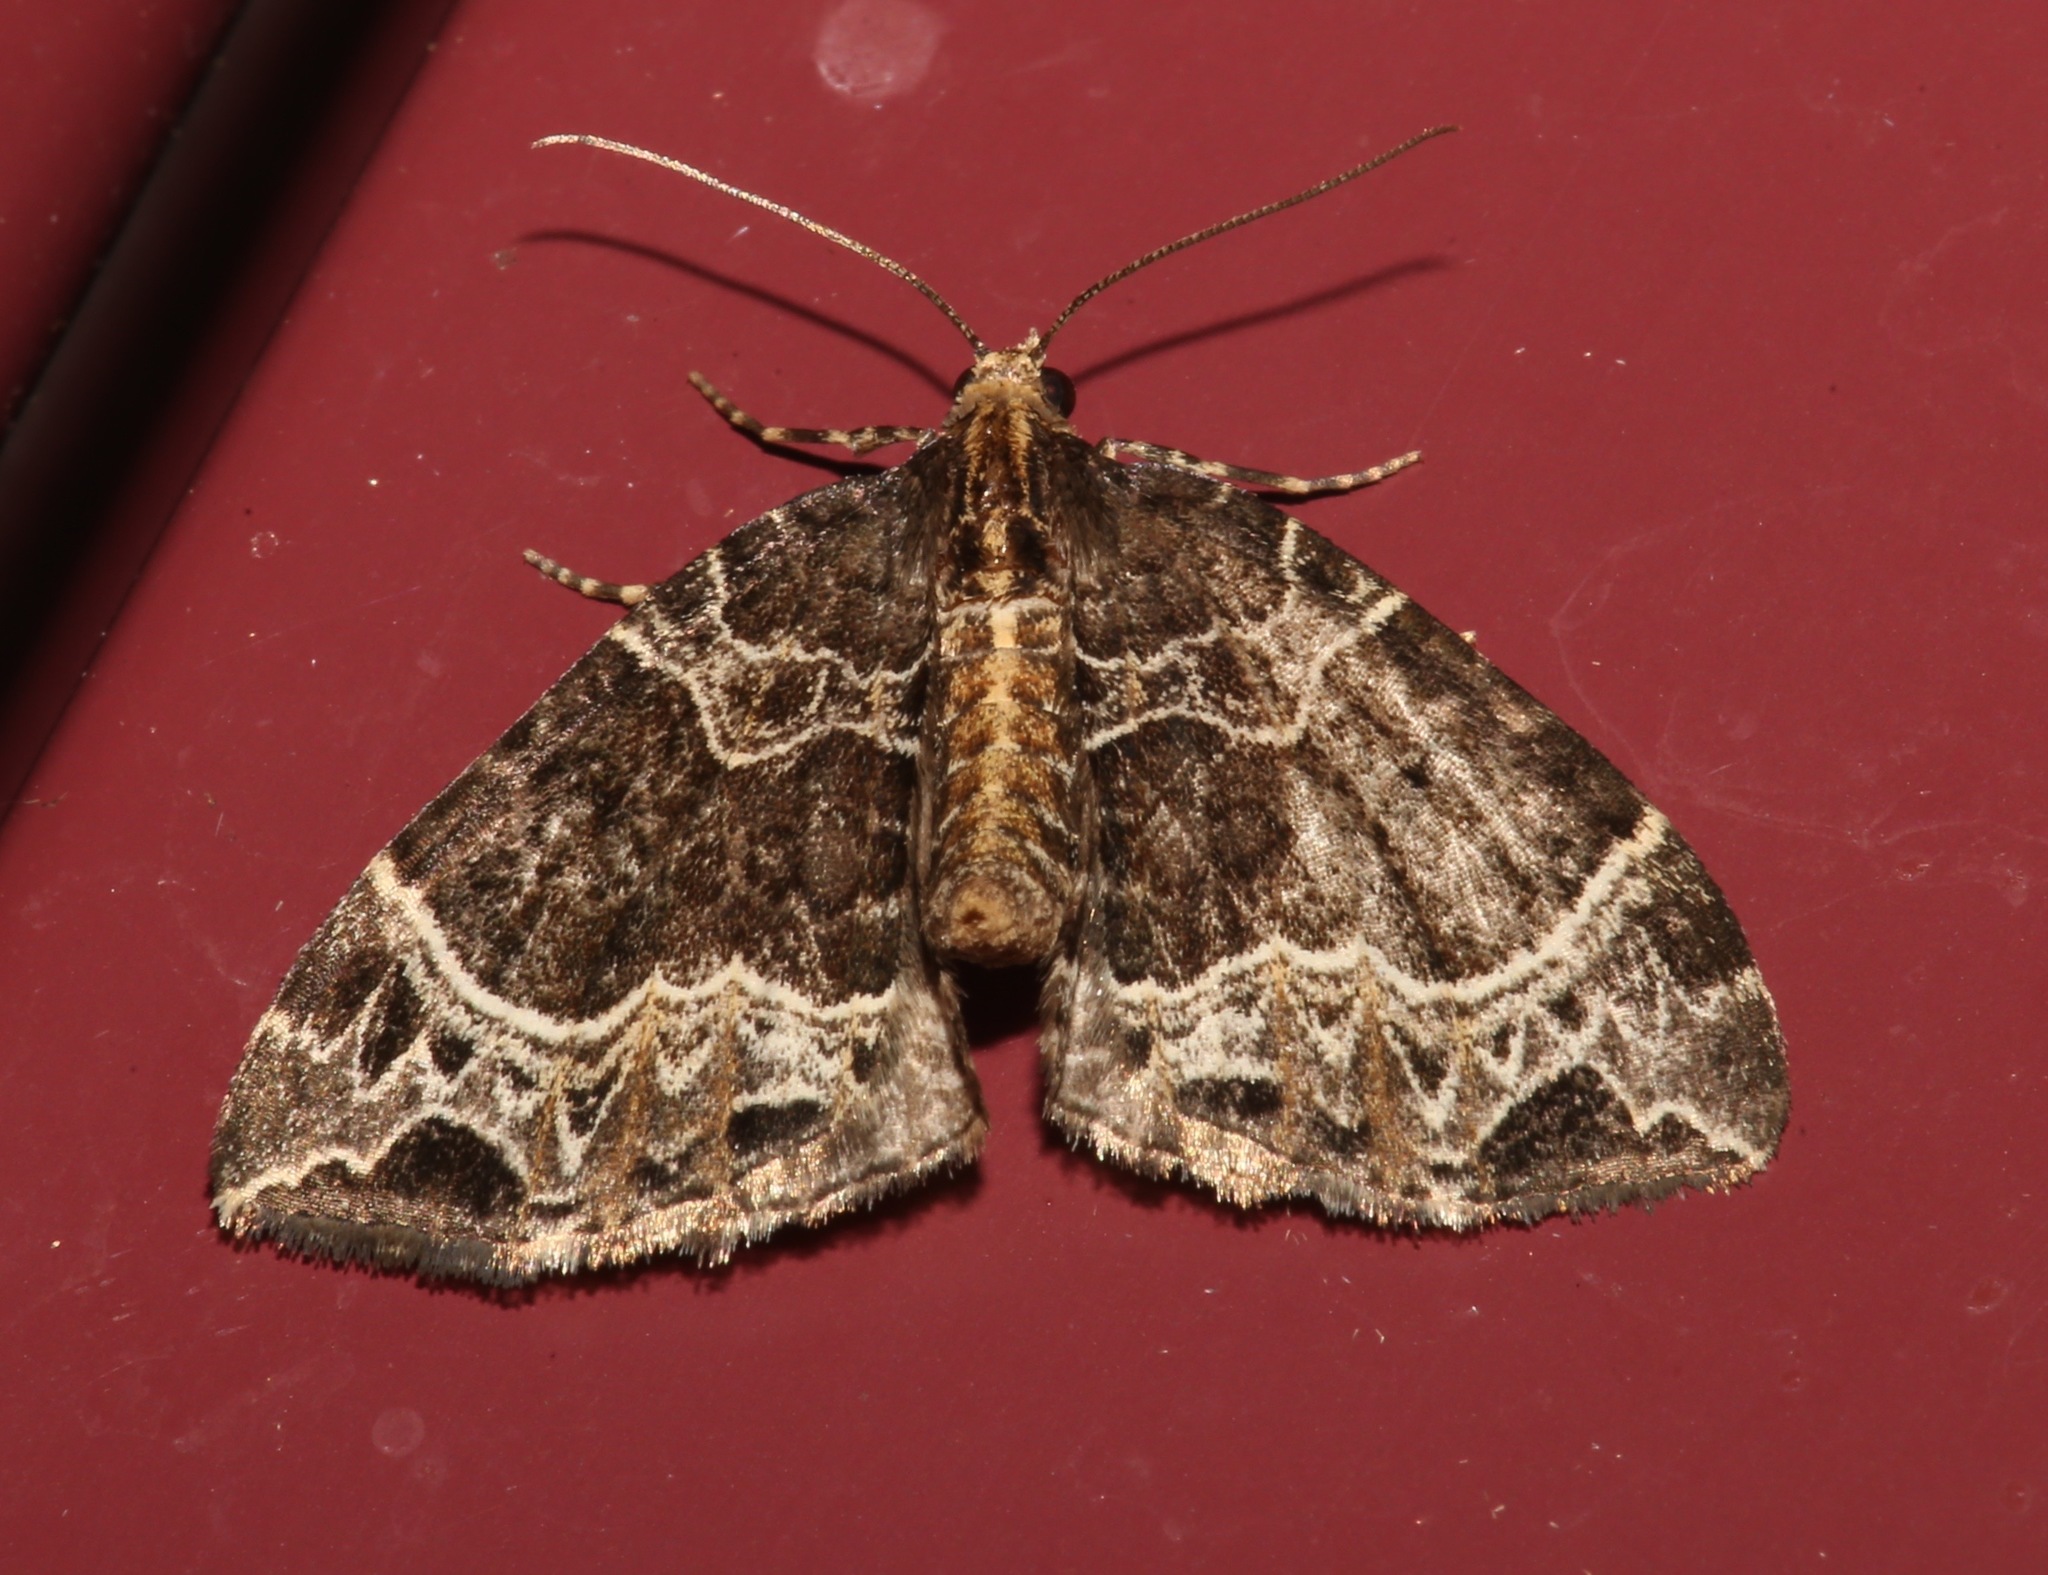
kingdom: Animalia
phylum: Arthropoda
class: Insecta
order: Lepidoptera
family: Geometridae
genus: Ecliptopera
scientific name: Ecliptopera silaceata
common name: Small phoenix
